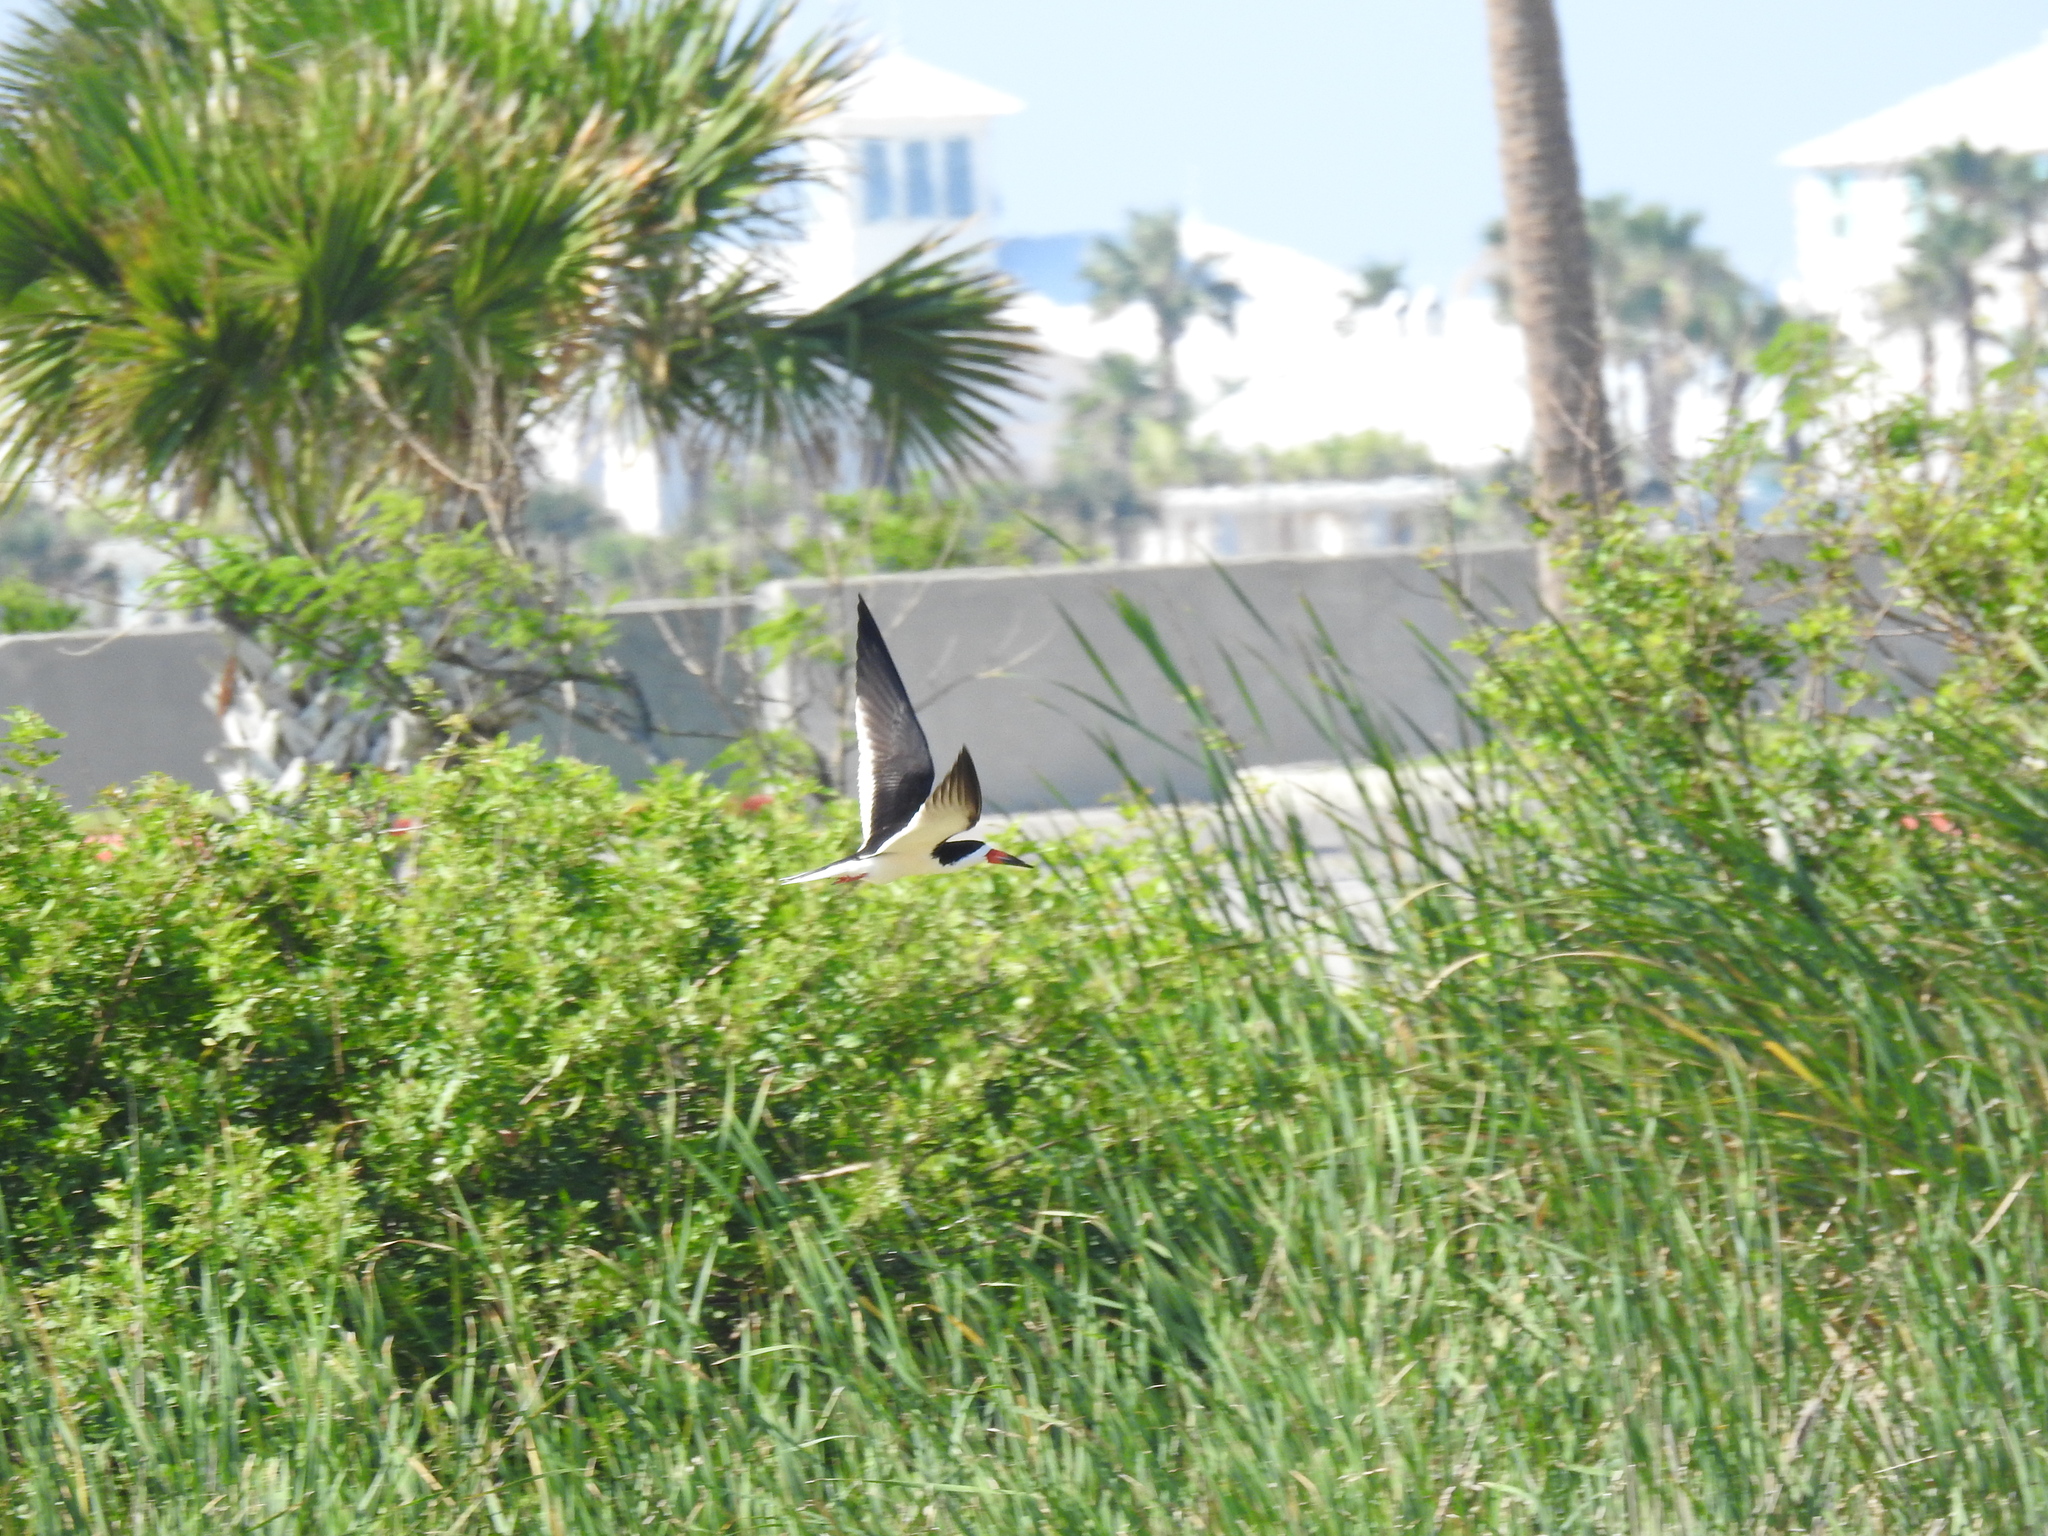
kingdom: Animalia
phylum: Chordata
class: Aves
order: Charadriiformes
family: Laridae
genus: Rynchops
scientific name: Rynchops niger
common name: Black skimmer
